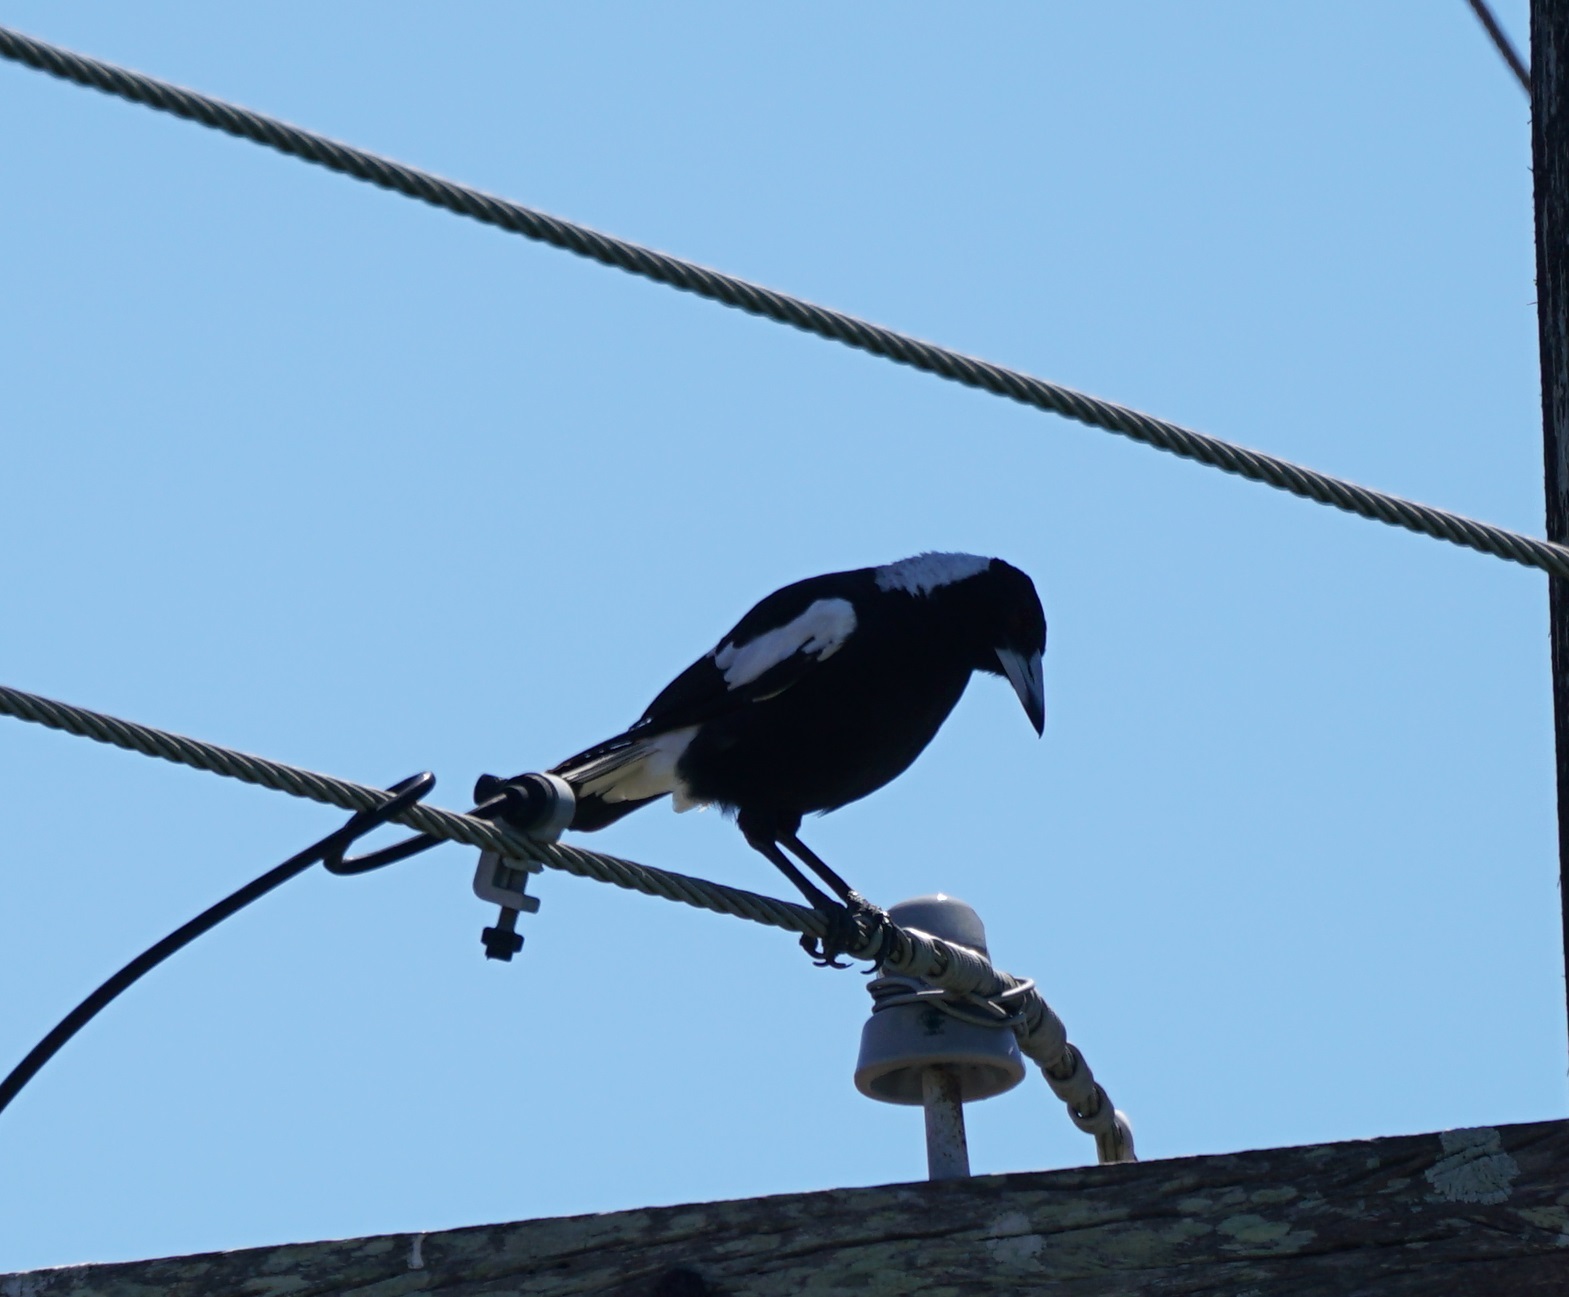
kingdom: Animalia
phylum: Chordata
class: Aves
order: Passeriformes
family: Cracticidae
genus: Gymnorhina
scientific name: Gymnorhina tibicen
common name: Australian magpie
